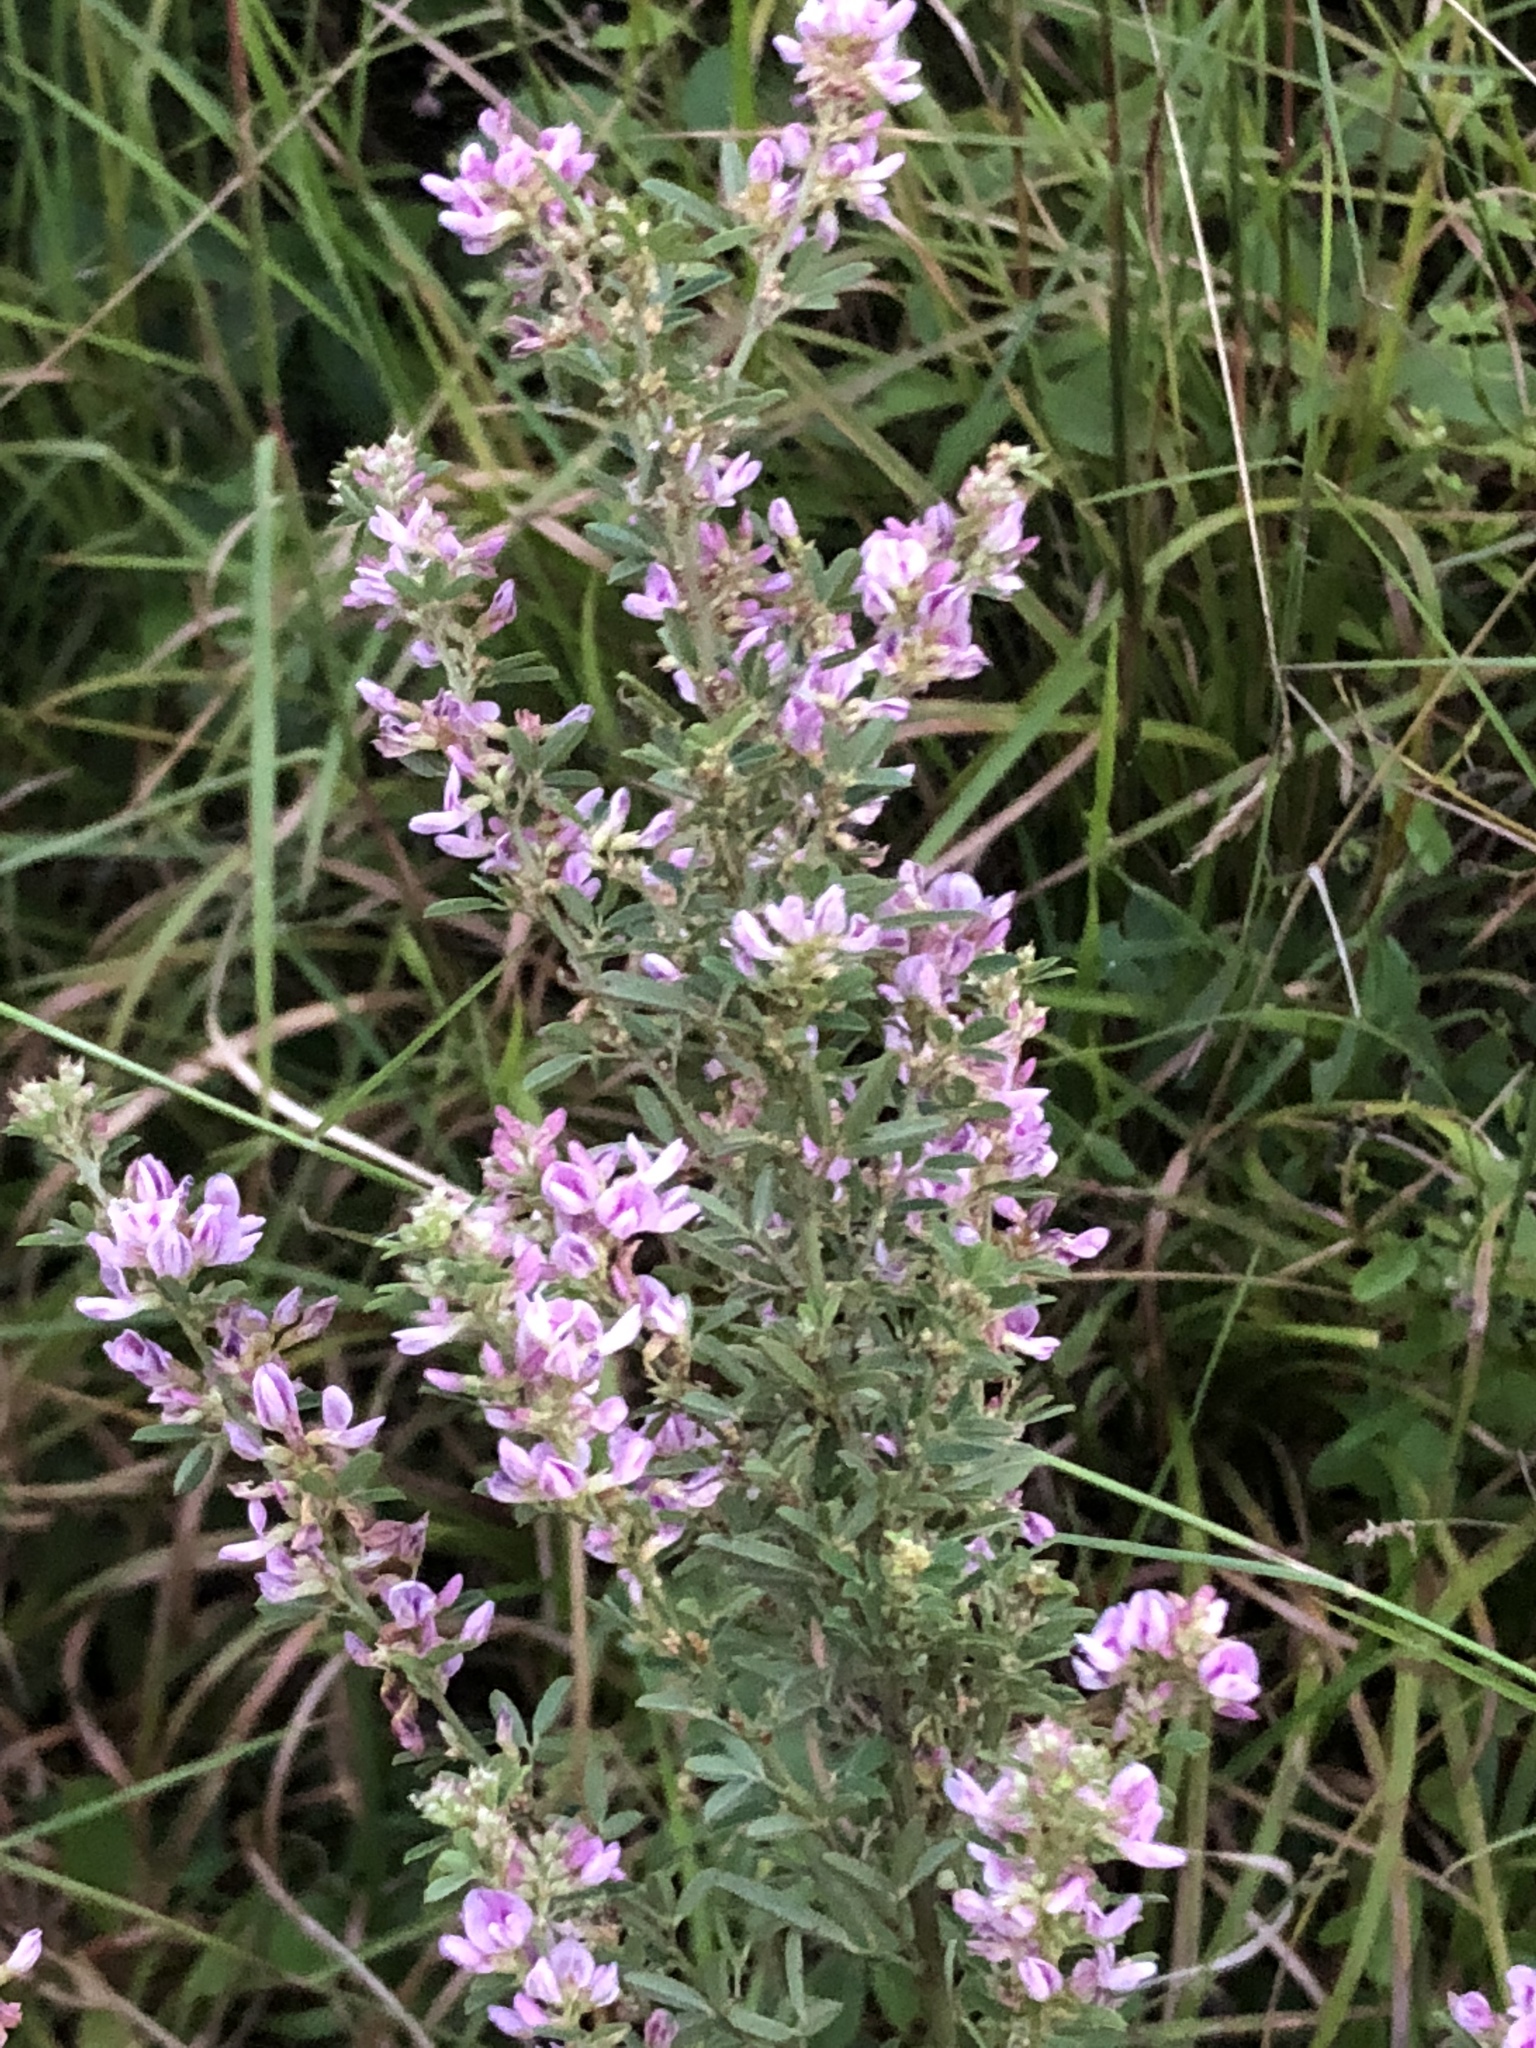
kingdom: Plantae
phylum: Tracheophyta
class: Magnoliopsida
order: Fabales
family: Fabaceae
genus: Lespedeza
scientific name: Lespedeza virginica
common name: Slender bush-clover
